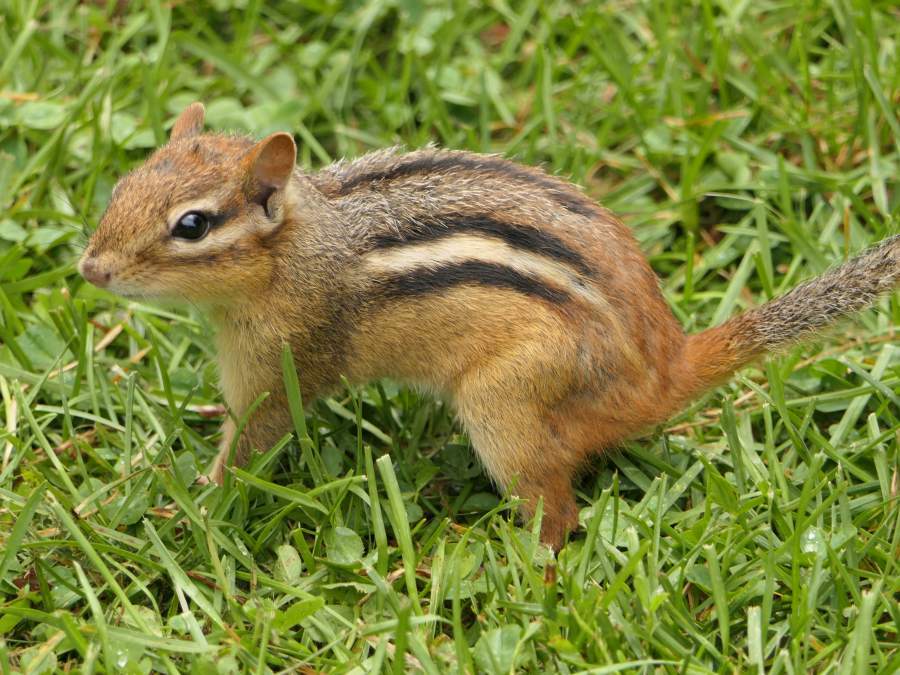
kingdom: Animalia
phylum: Chordata
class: Mammalia
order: Rodentia
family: Sciuridae
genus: Tamias
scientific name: Tamias striatus
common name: Eastern chipmunk
